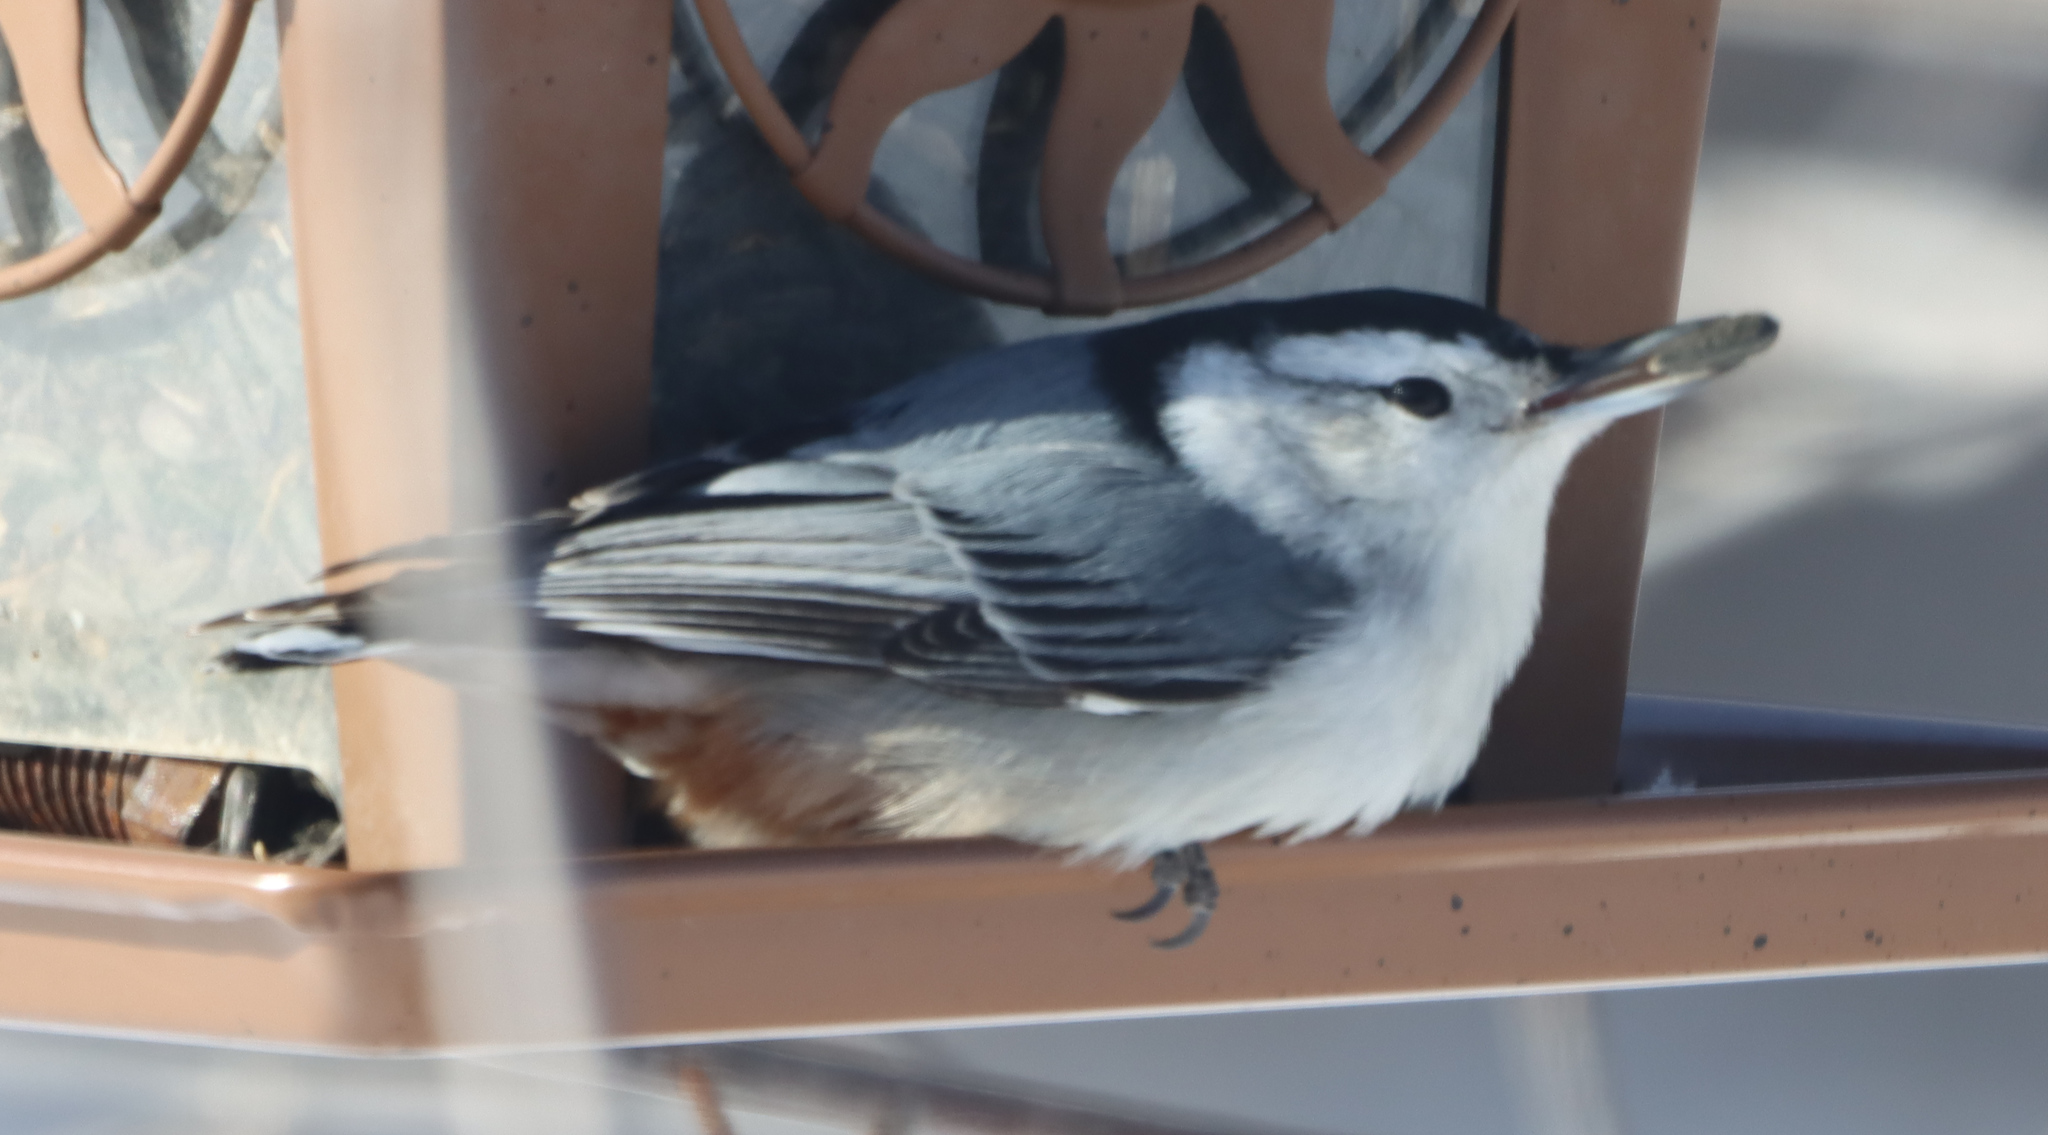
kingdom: Animalia
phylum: Chordata
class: Aves
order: Passeriformes
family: Sittidae
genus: Sitta
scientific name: Sitta carolinensis
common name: White-breasted nuthatch
